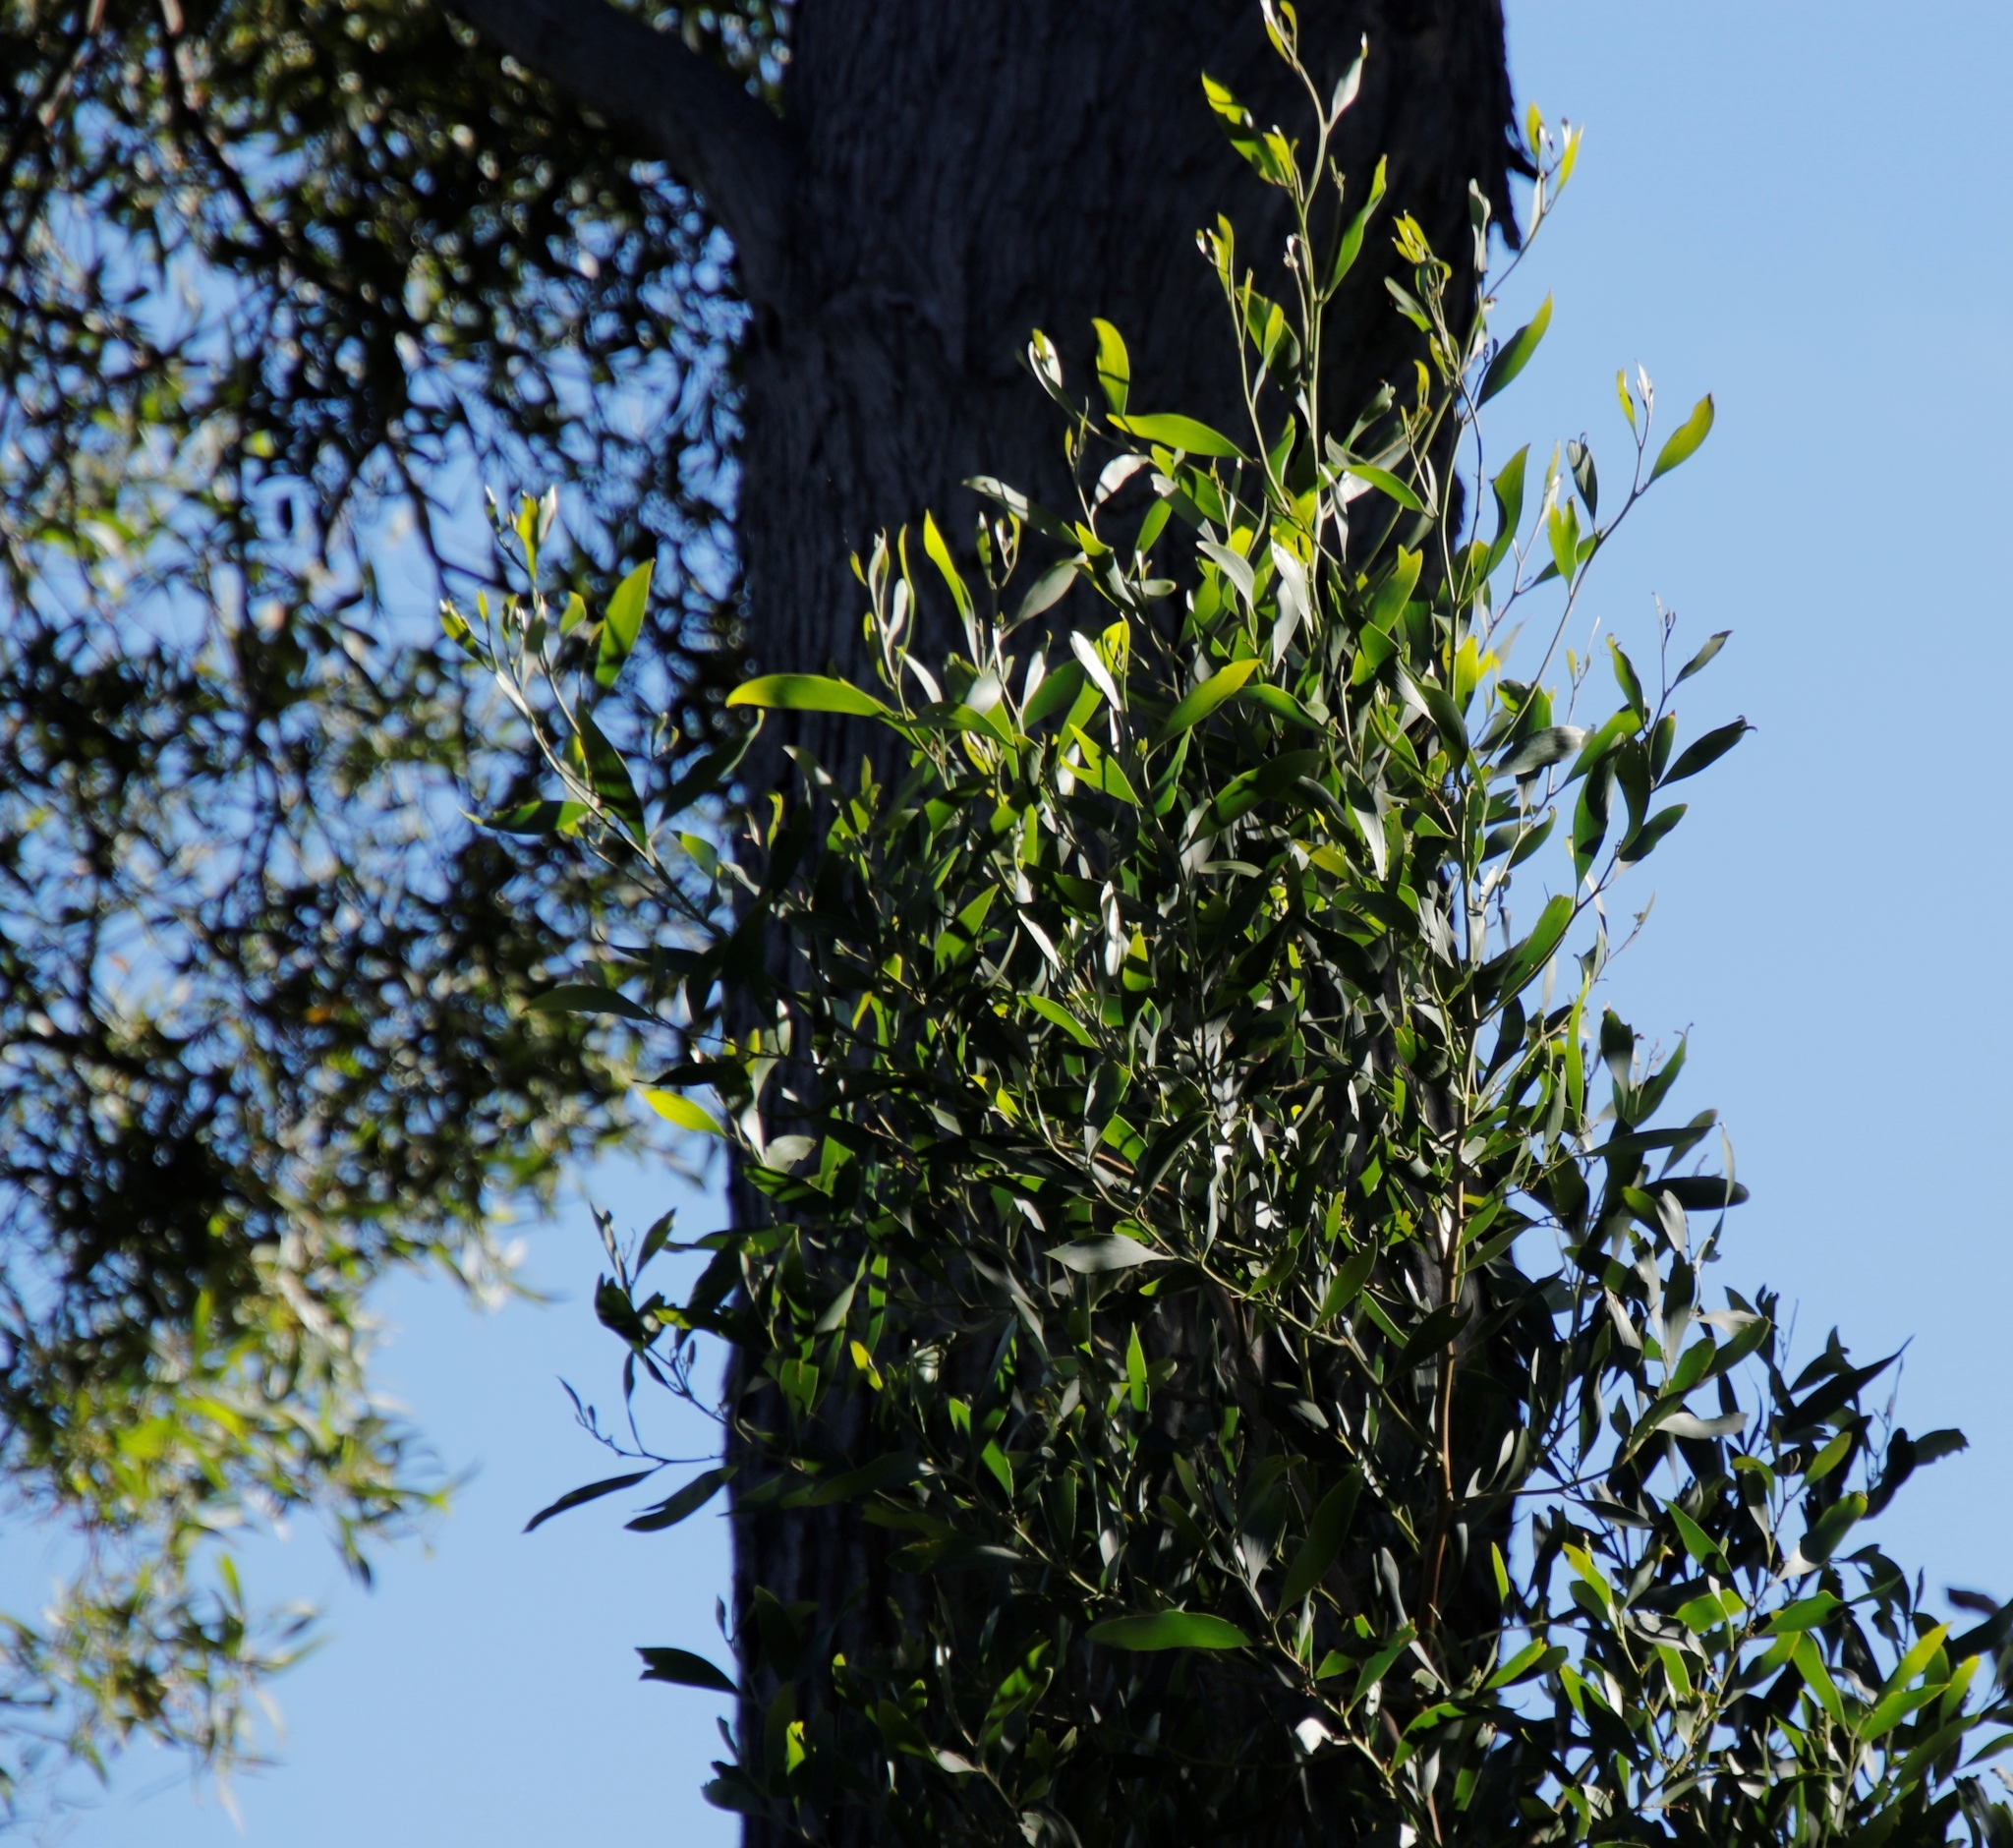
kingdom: Plantae
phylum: Tracheophyta
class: Magnoliopsida
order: Fabales
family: Fabaceae
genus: Acacia
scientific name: Acacia melanoxylon
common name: Blackwood
